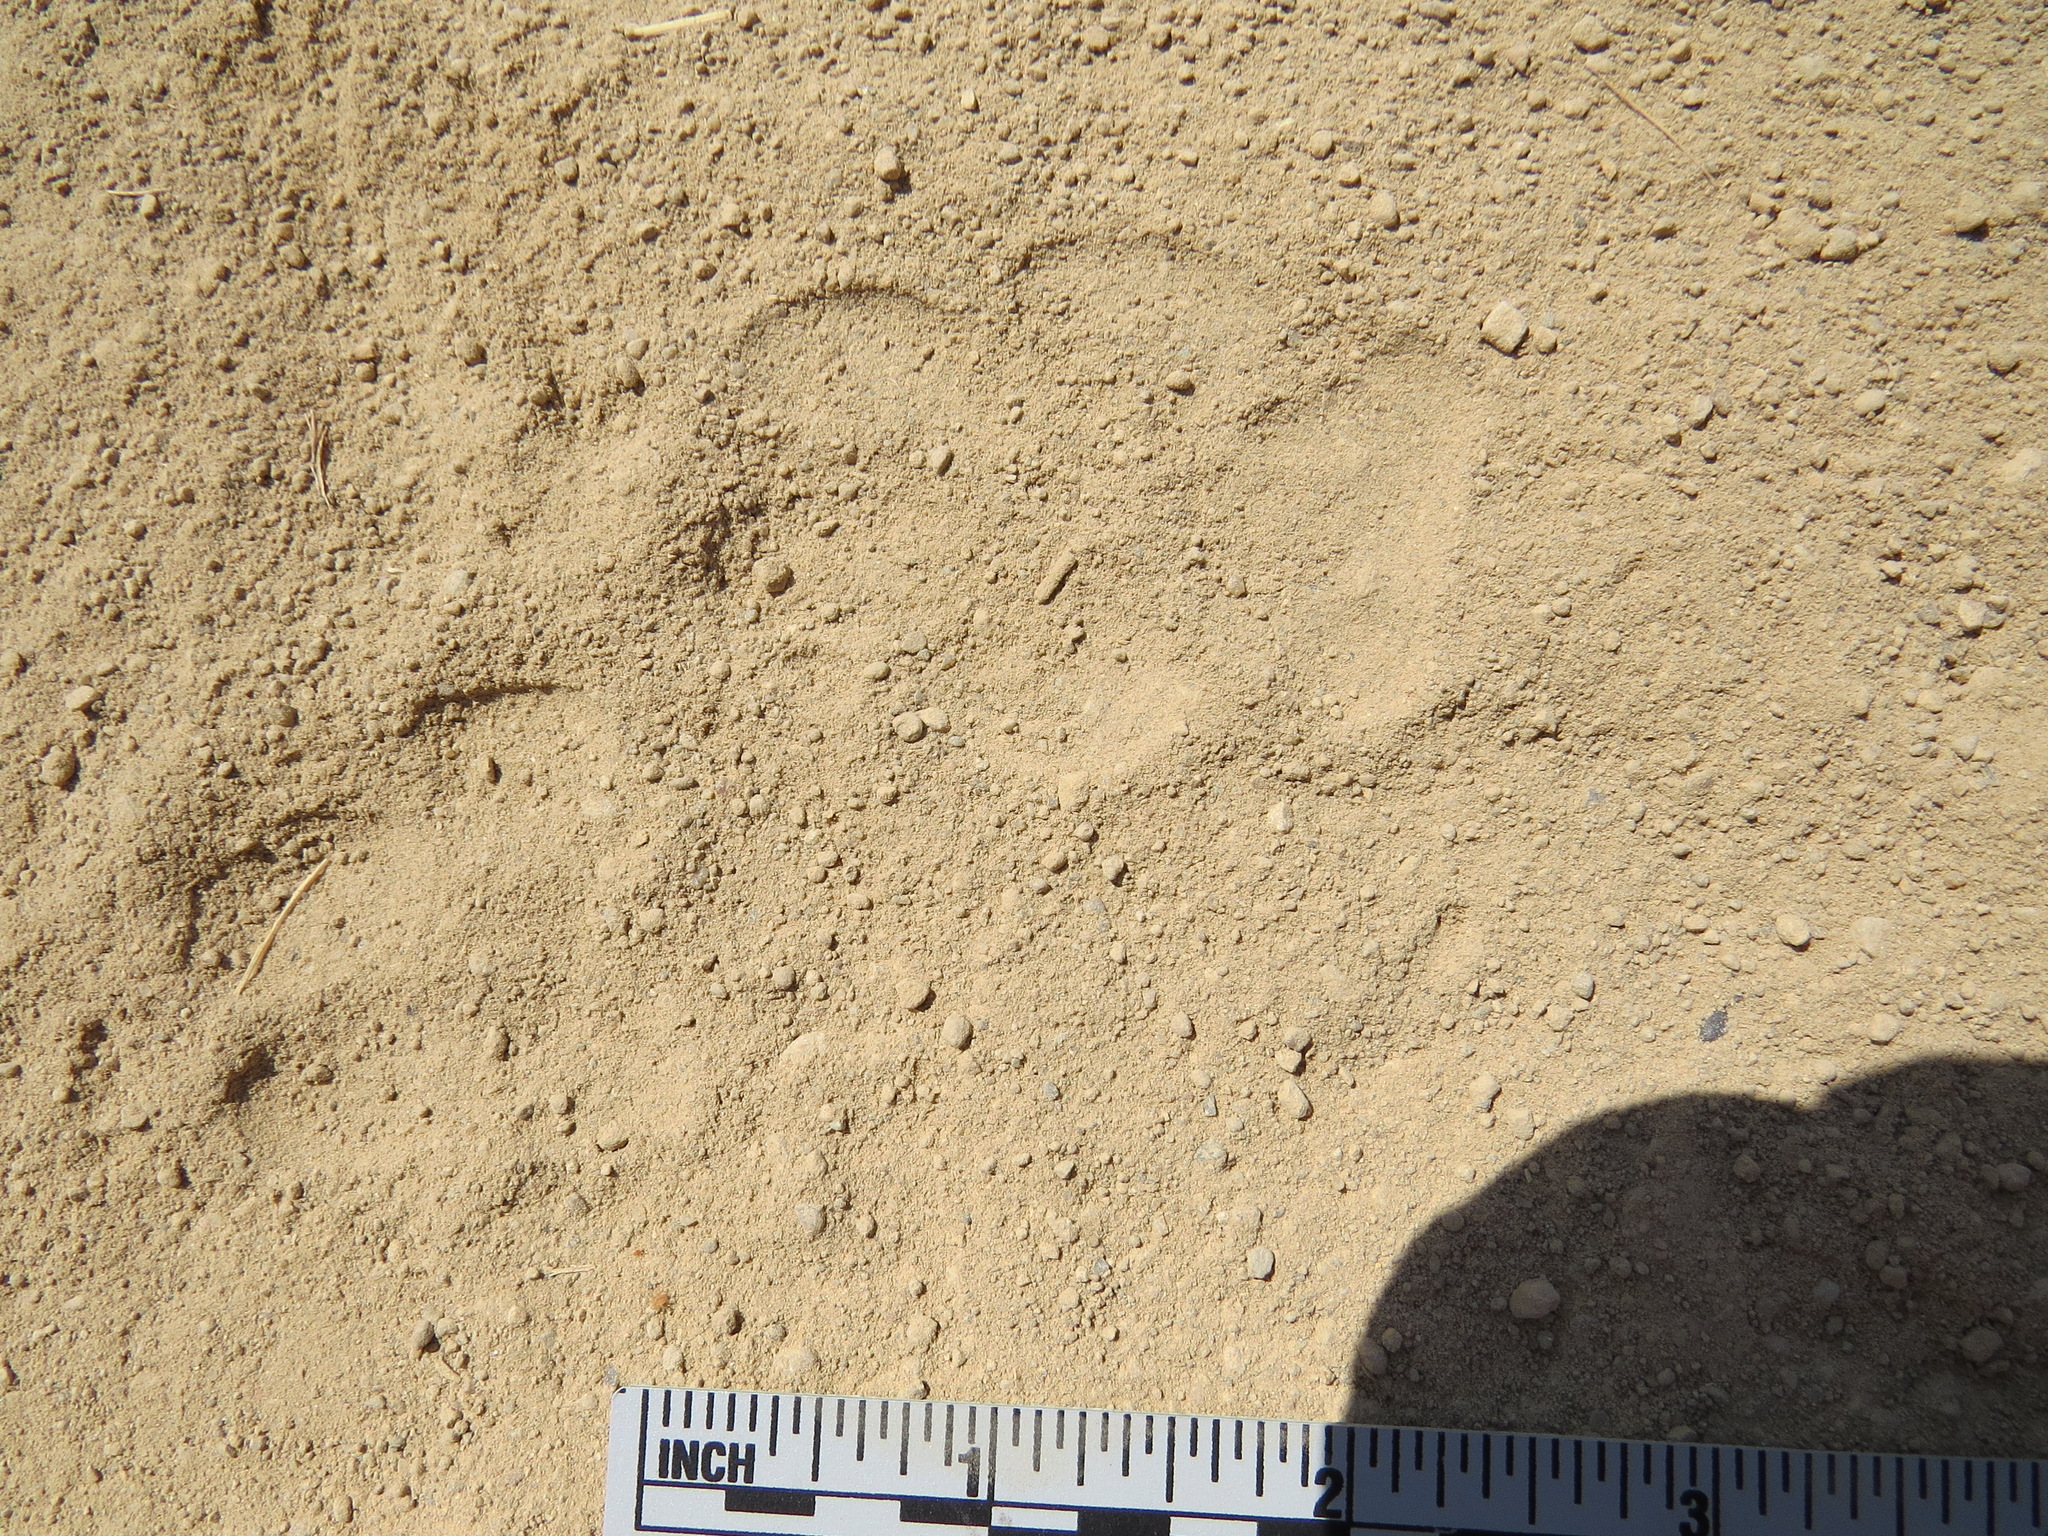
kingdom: Animalia
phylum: Chordata
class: Mammalia
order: Carnivora
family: Canidae
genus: Canis
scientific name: Canis latrans
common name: Coyote
